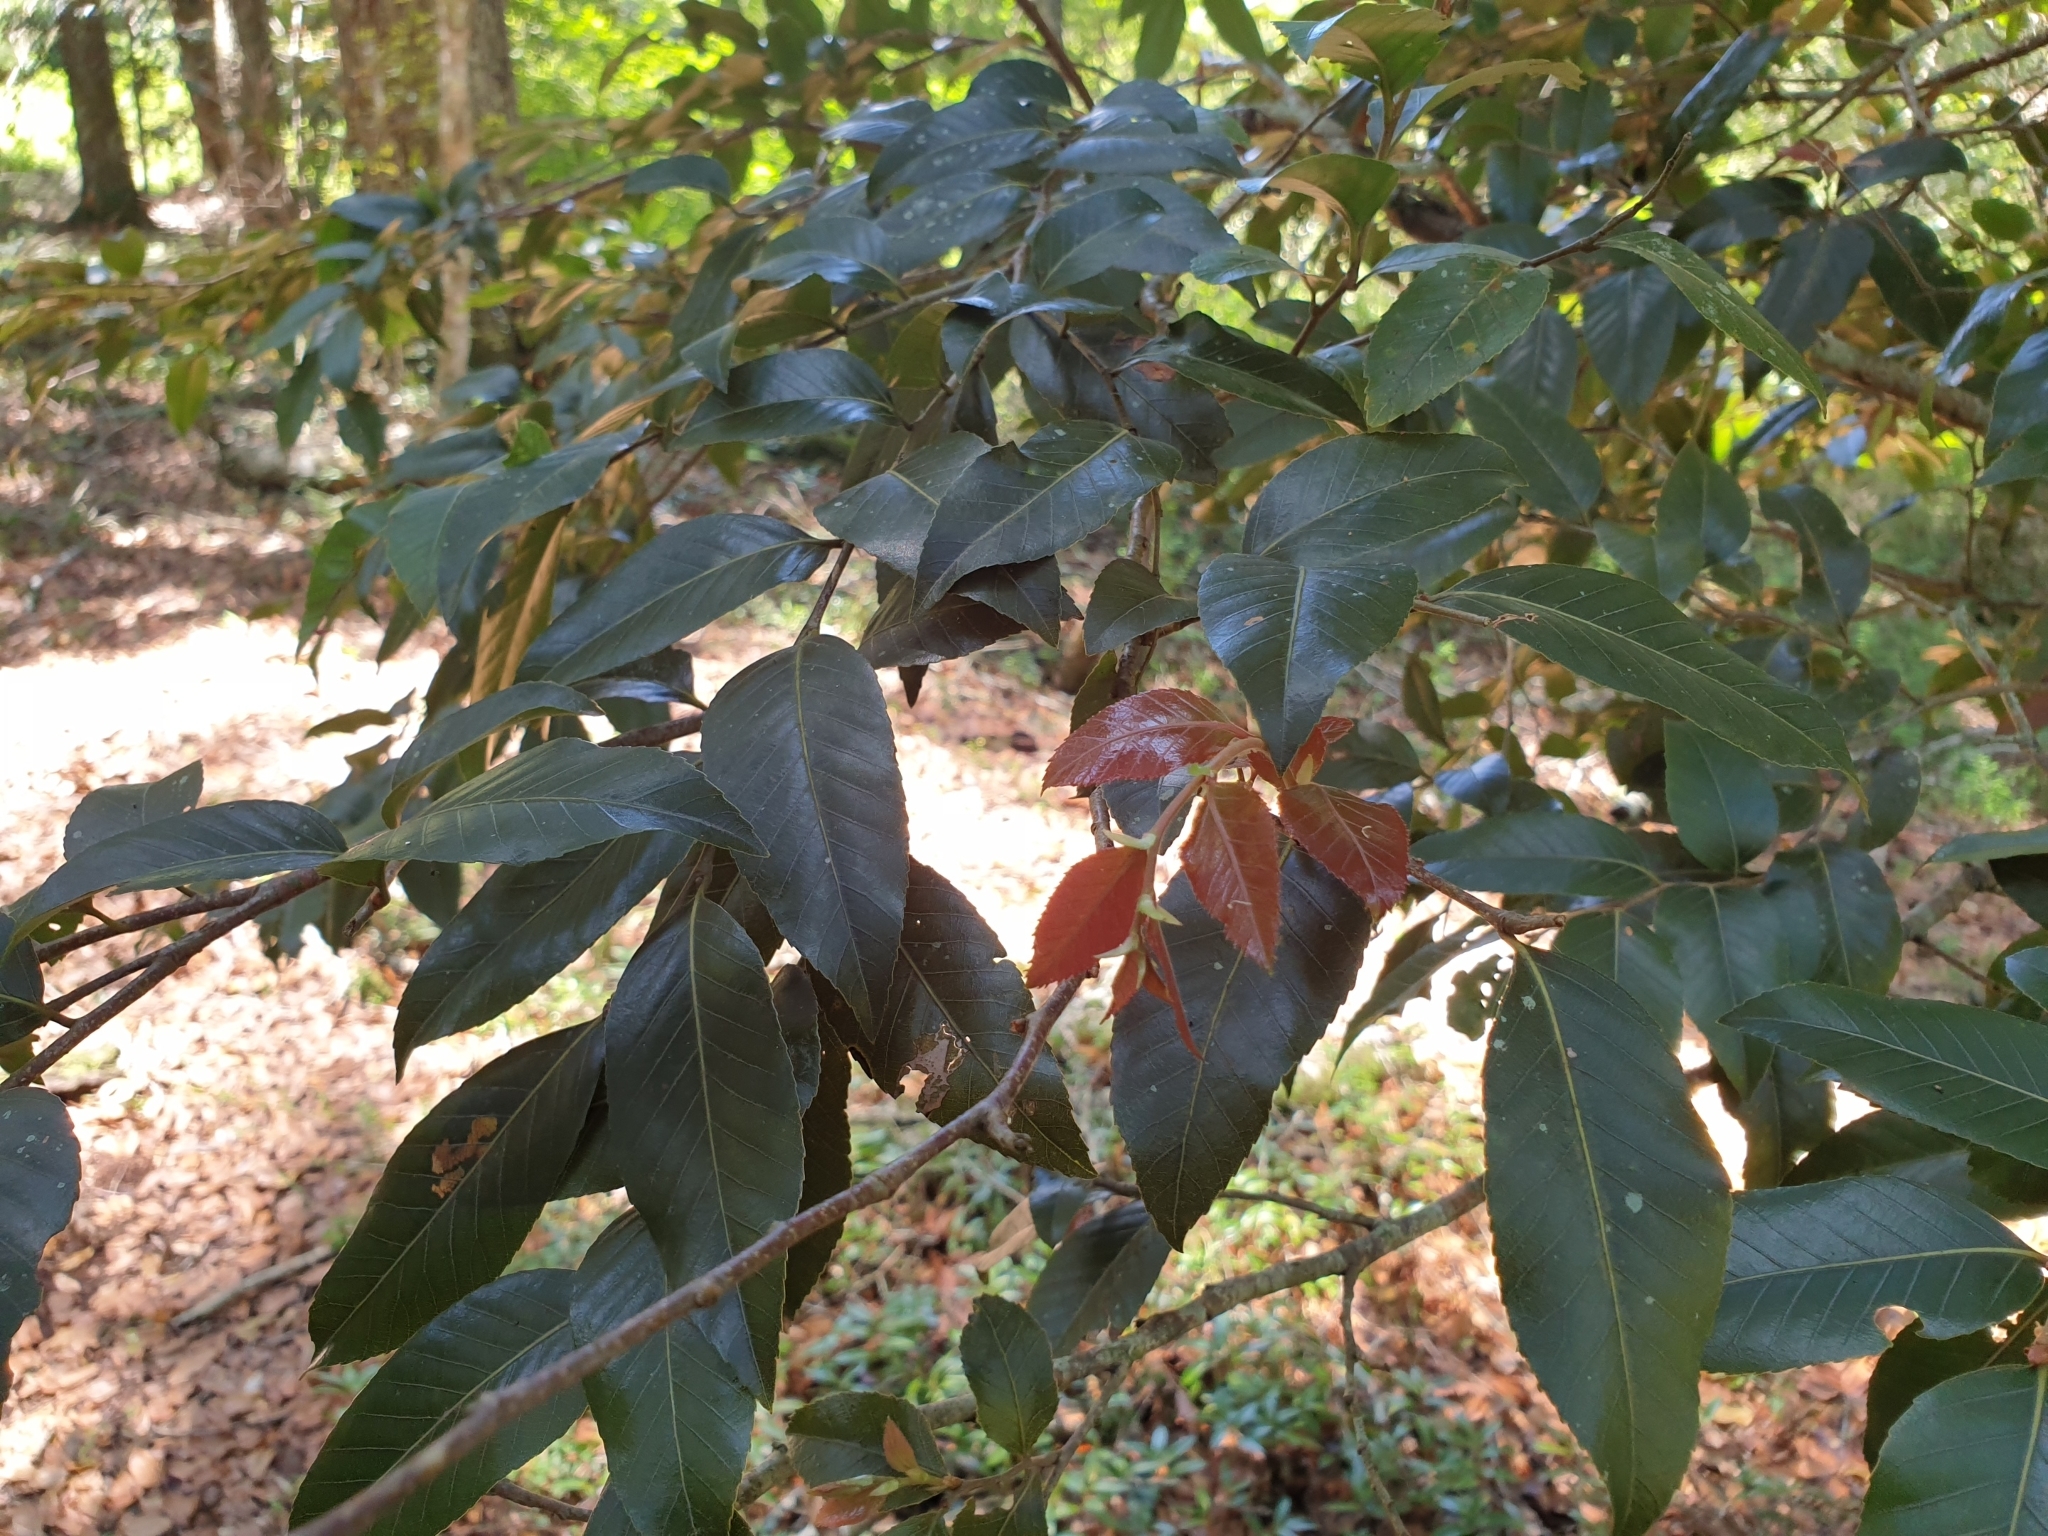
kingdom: Plantae
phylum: Tracheophyta
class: Magnoliopsida
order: Fagales
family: Nothofagaceae
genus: Nothofagus
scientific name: Nothofagus moorei
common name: Antarctic beech
